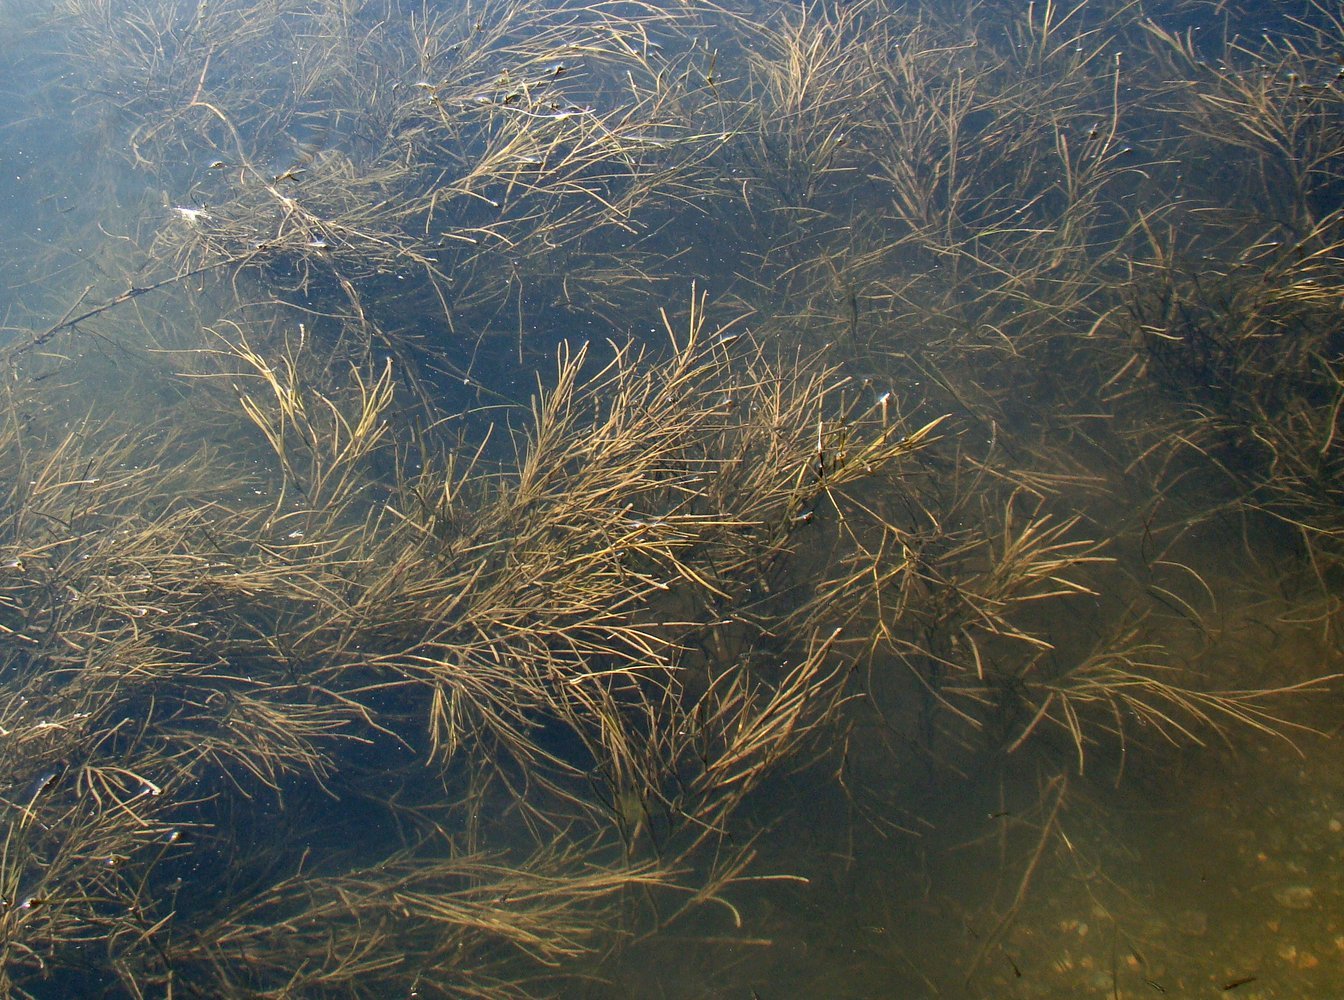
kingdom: Plantae
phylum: Tracheophyta
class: Liliopsida
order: Alismatales
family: Potamogetonaceae
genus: Stuckenia
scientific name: Stuckenia pectinata
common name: Sago pondweed
